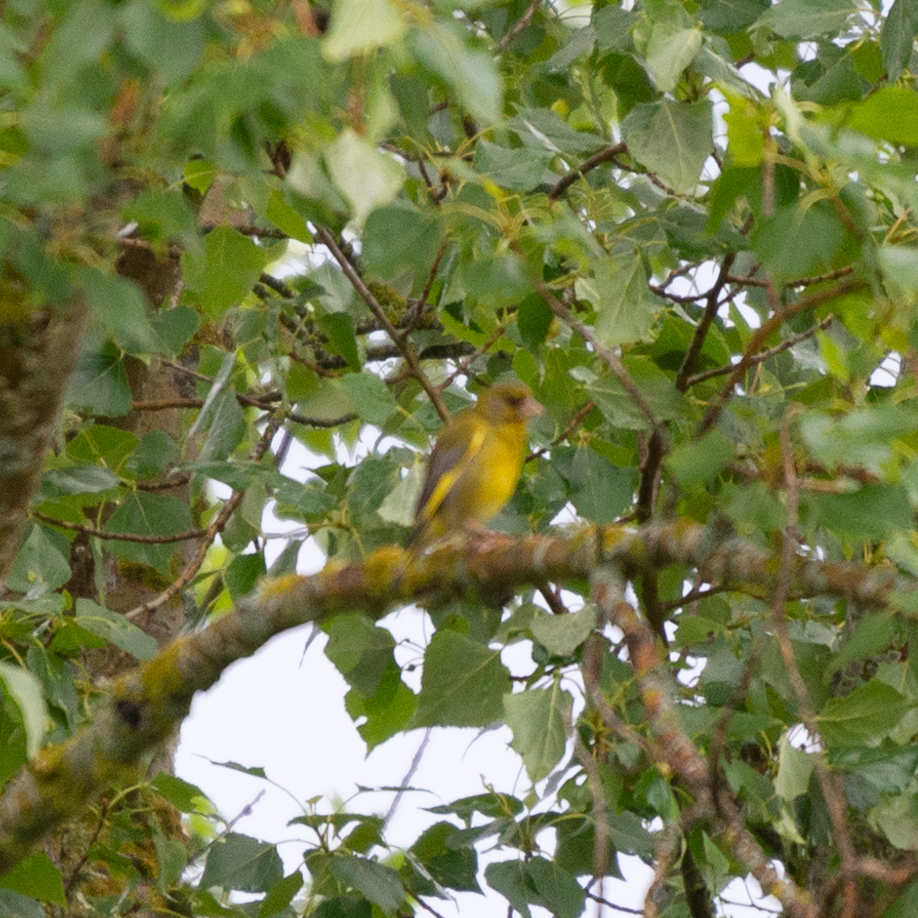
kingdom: Plantae
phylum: Tracheophyta
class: Liliopsida
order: Poales
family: Poaceae
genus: Chloris
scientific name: Chloris chloris
